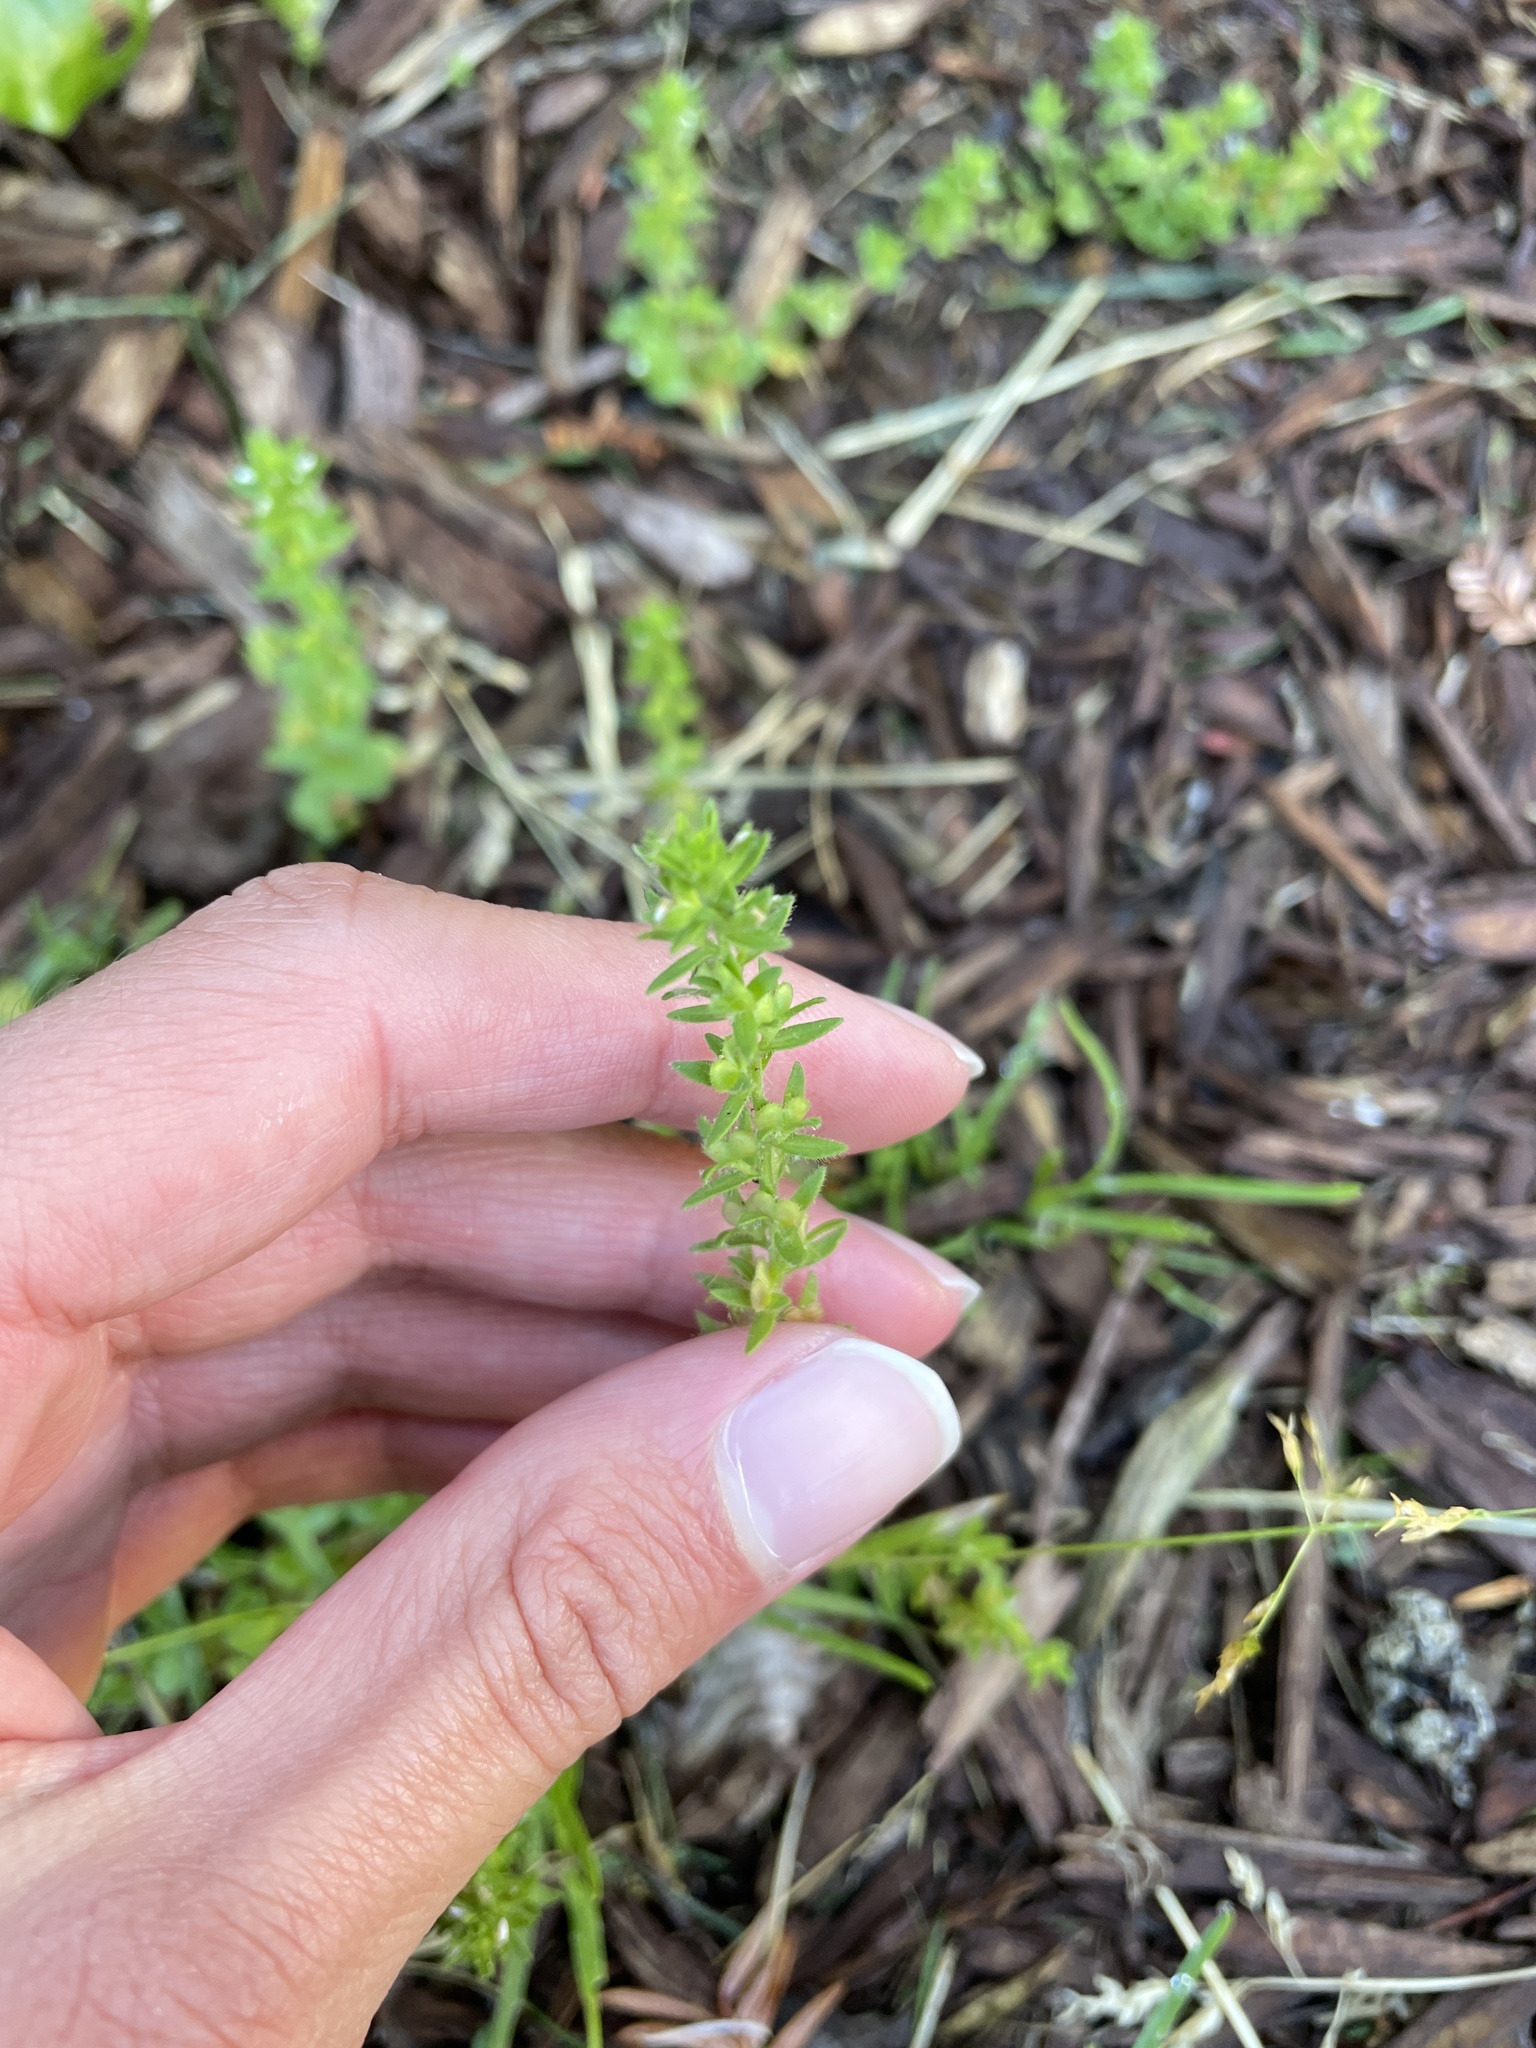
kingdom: Plantae
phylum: Tracheophyta
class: Magnoliopsida
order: Lamiales
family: Plantaginaceae
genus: Veronica
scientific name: Veronica arvensis
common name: Corn speedwell
